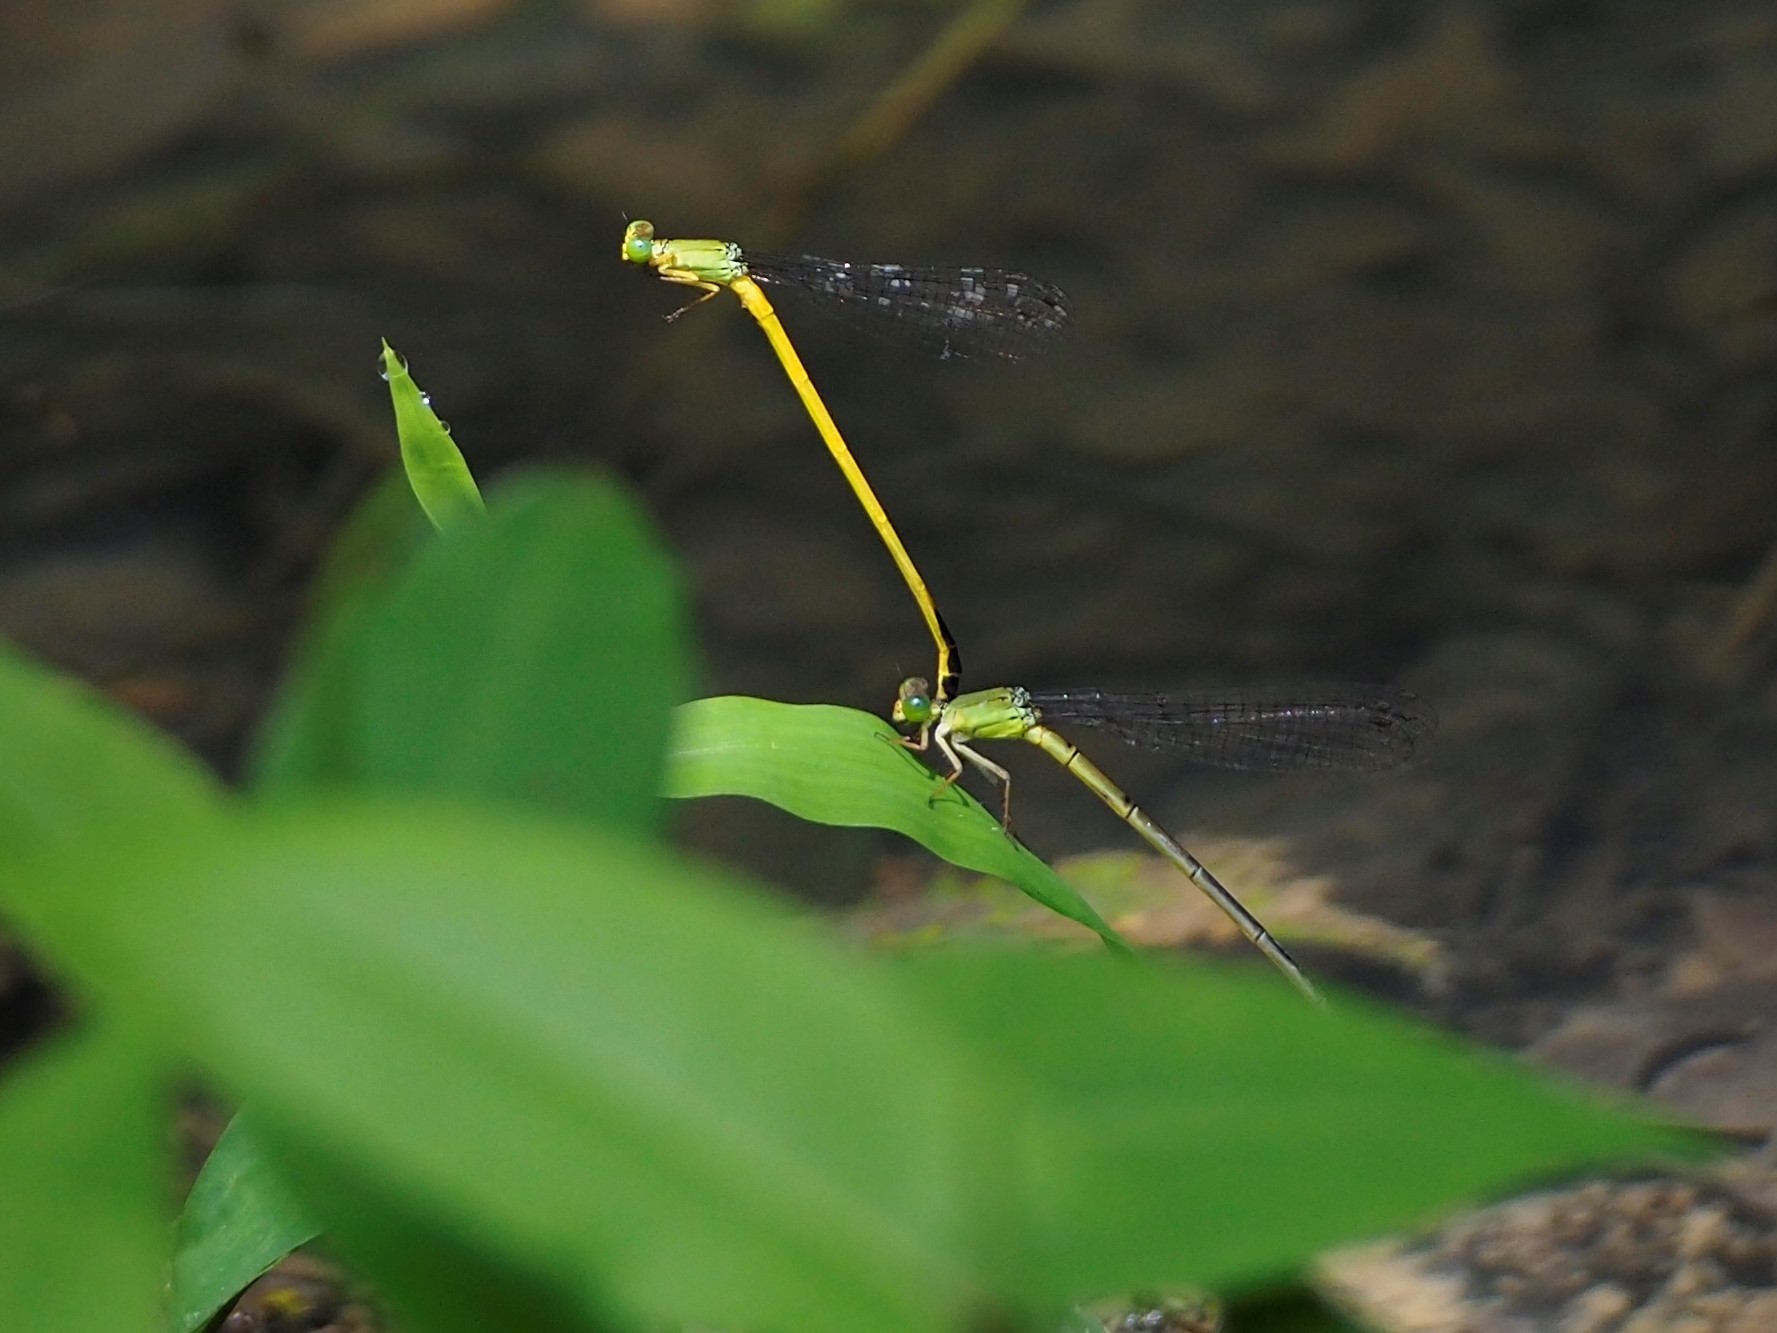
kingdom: Animalia
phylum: Arthropoda
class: Insecta
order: Odonata
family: Coenagrionidae
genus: Ceriagrion
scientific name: Ceriagrion fallax
